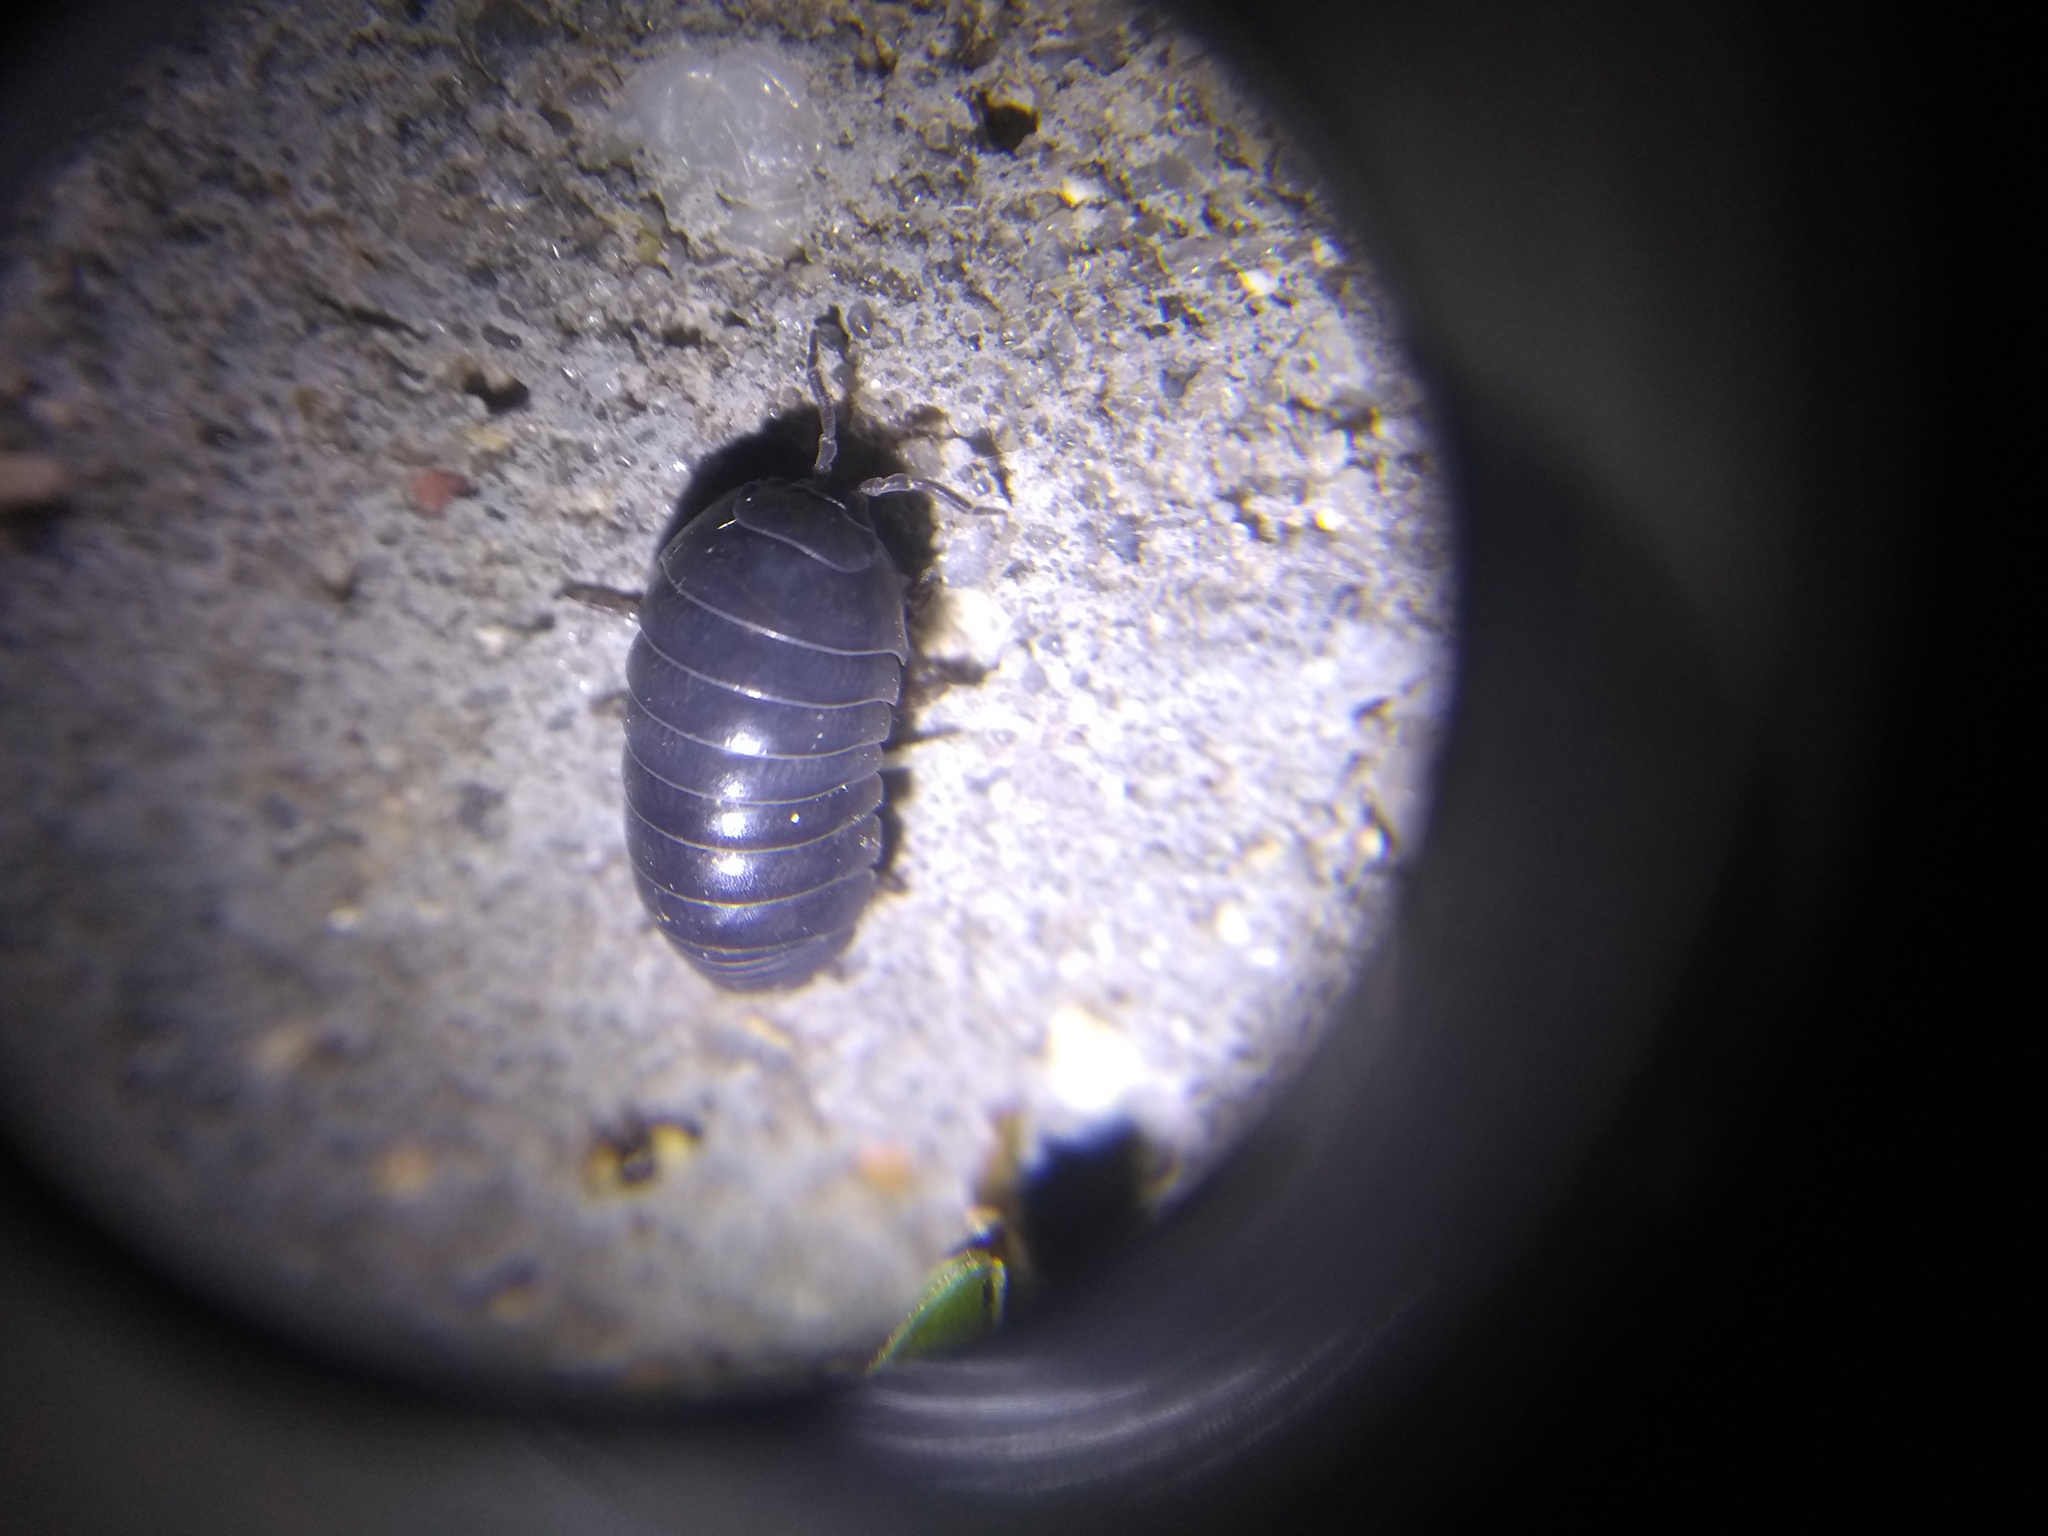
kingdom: Animalia
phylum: Arthropoda
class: Malacostraca
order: Isopoda
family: Armadillidiidae
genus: Armadillidium
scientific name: Armadillidium vulgare
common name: Common pill woodlouse
